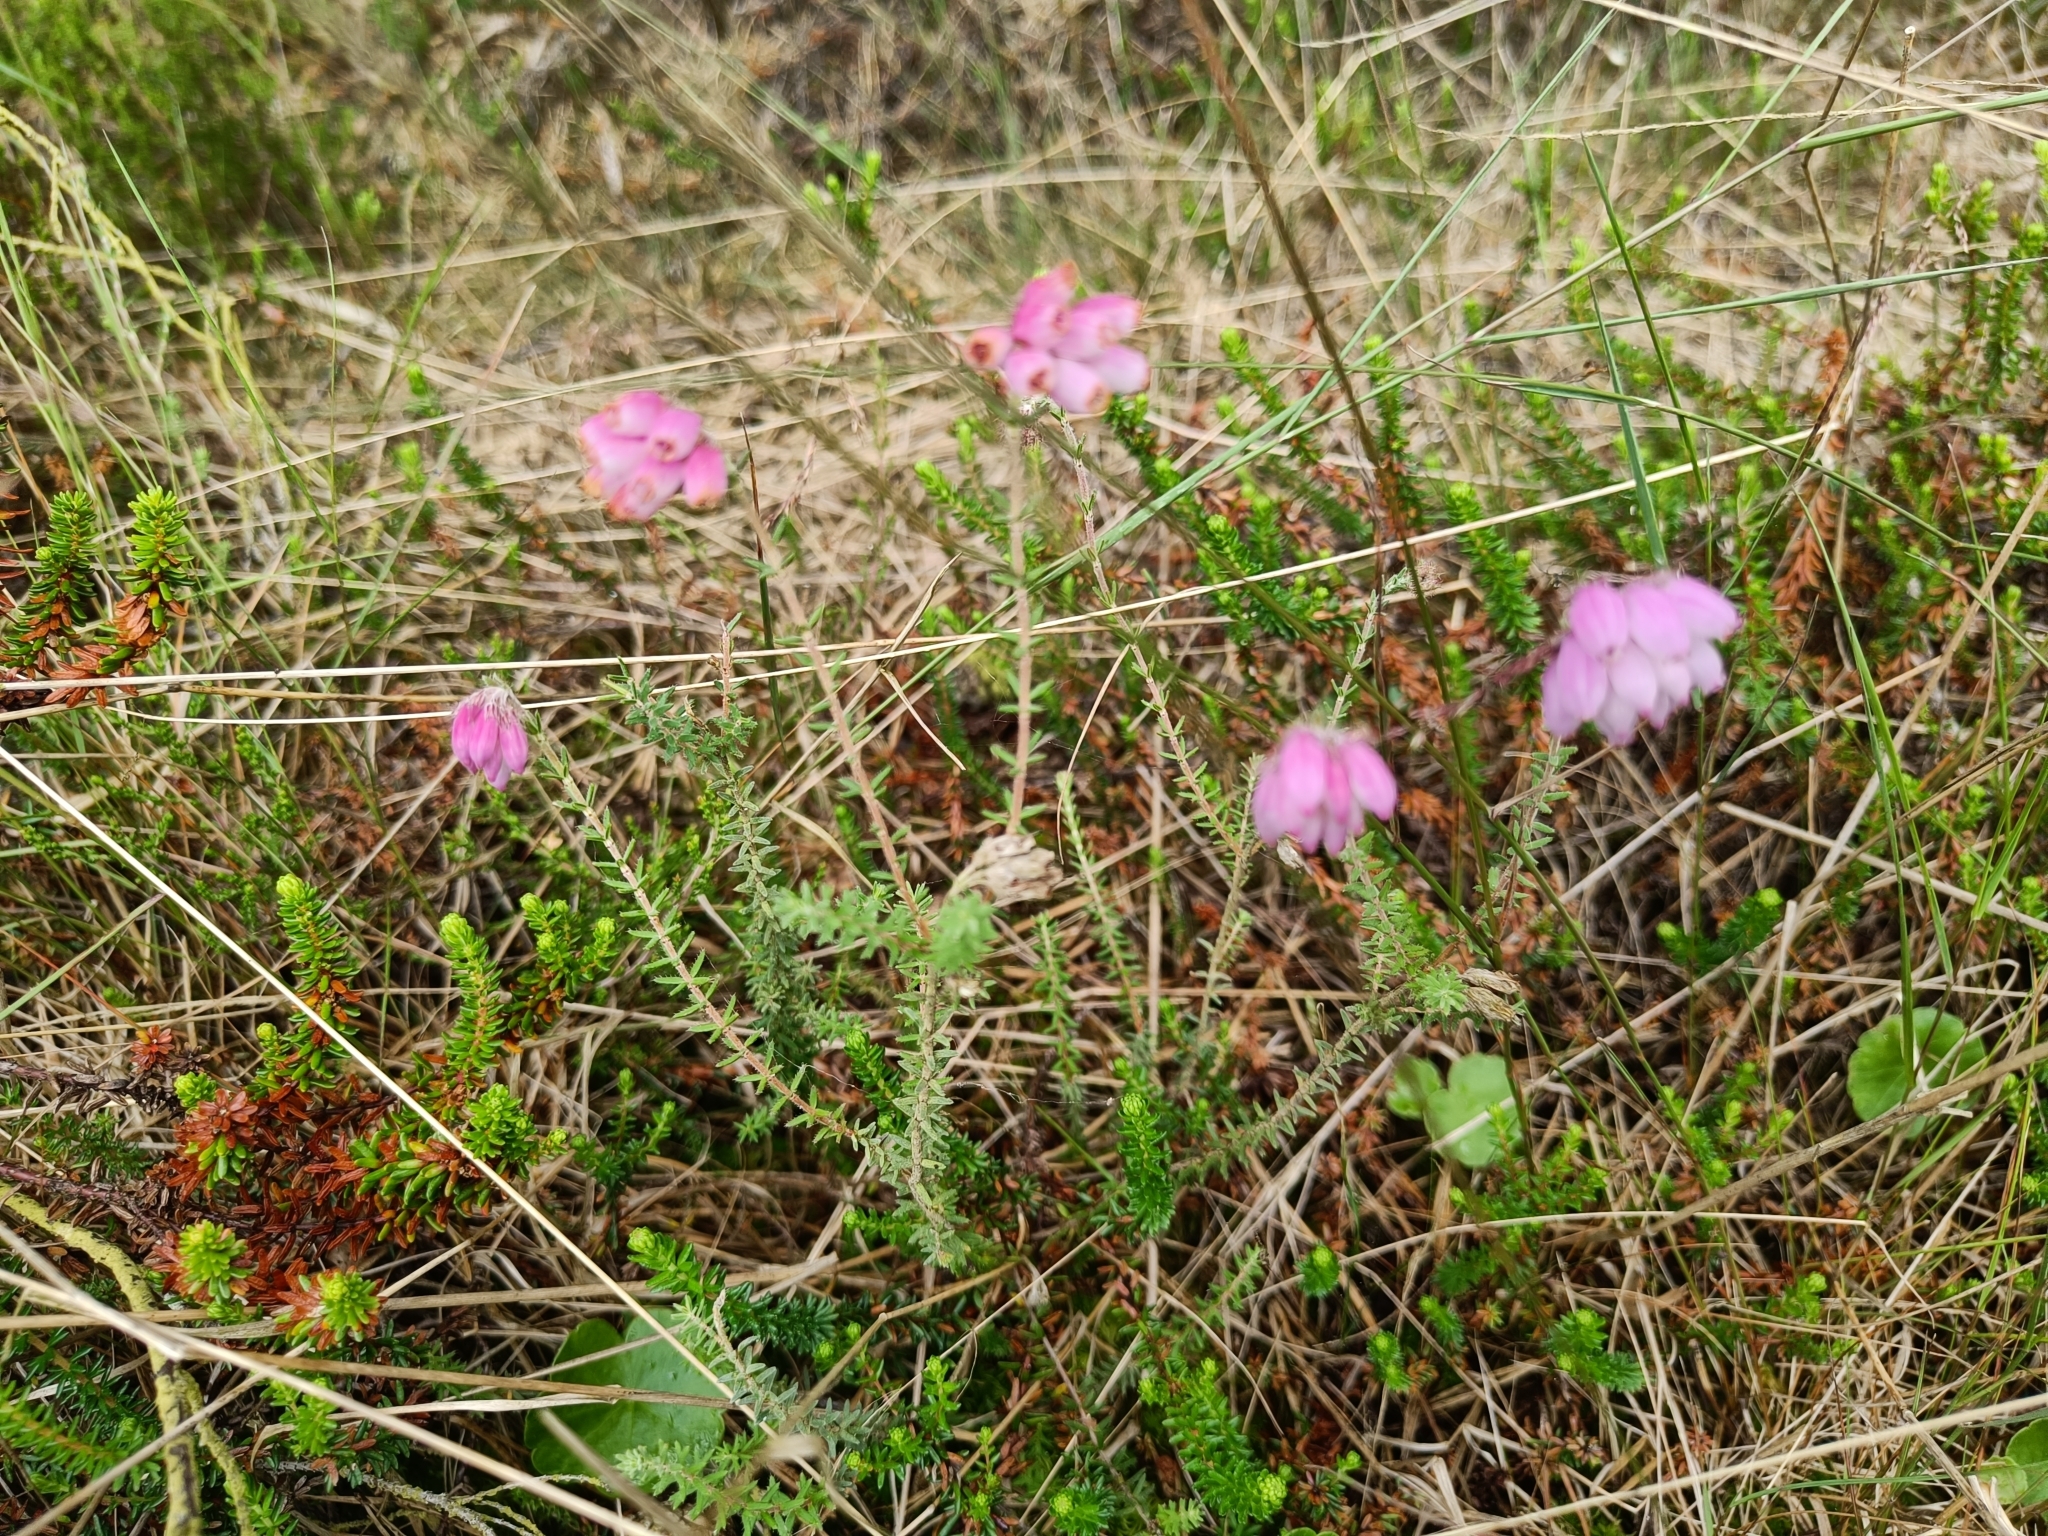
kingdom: Plantae
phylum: Tracheophyta
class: Magnoliopsida
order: Ericales
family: Ericaceae
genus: Erica
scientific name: Erica tetralix
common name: Cross-leaved heath
